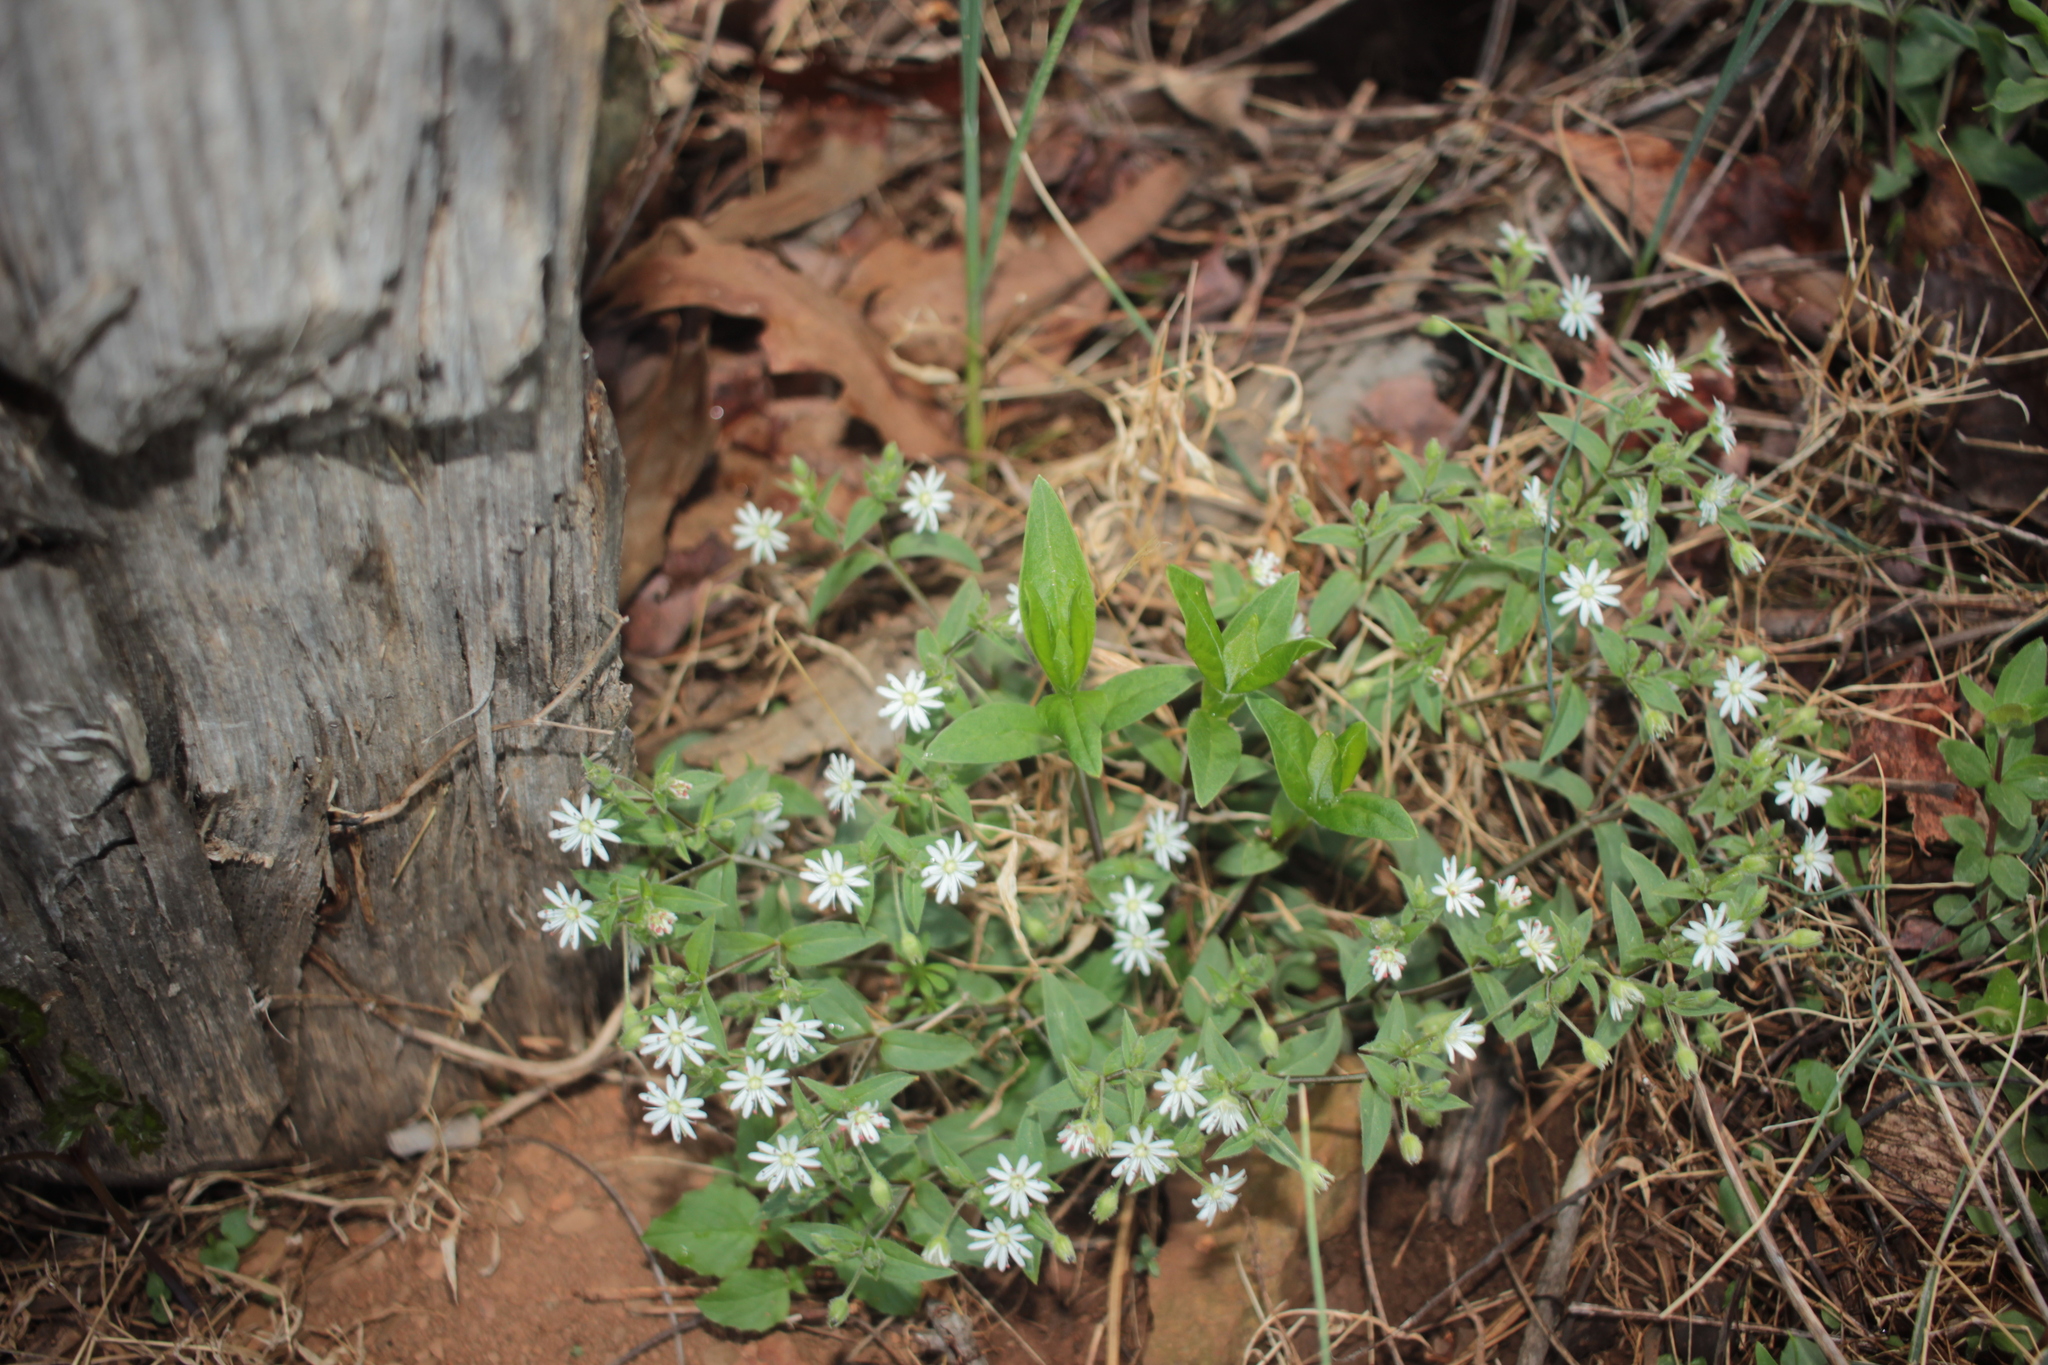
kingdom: Plantae
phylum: Tracheophyta
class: Magnoliopsida
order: Caryophyllales
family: Caryophyllaceae
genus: Stellaria
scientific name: Stellaria pubera
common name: Star chickweed
